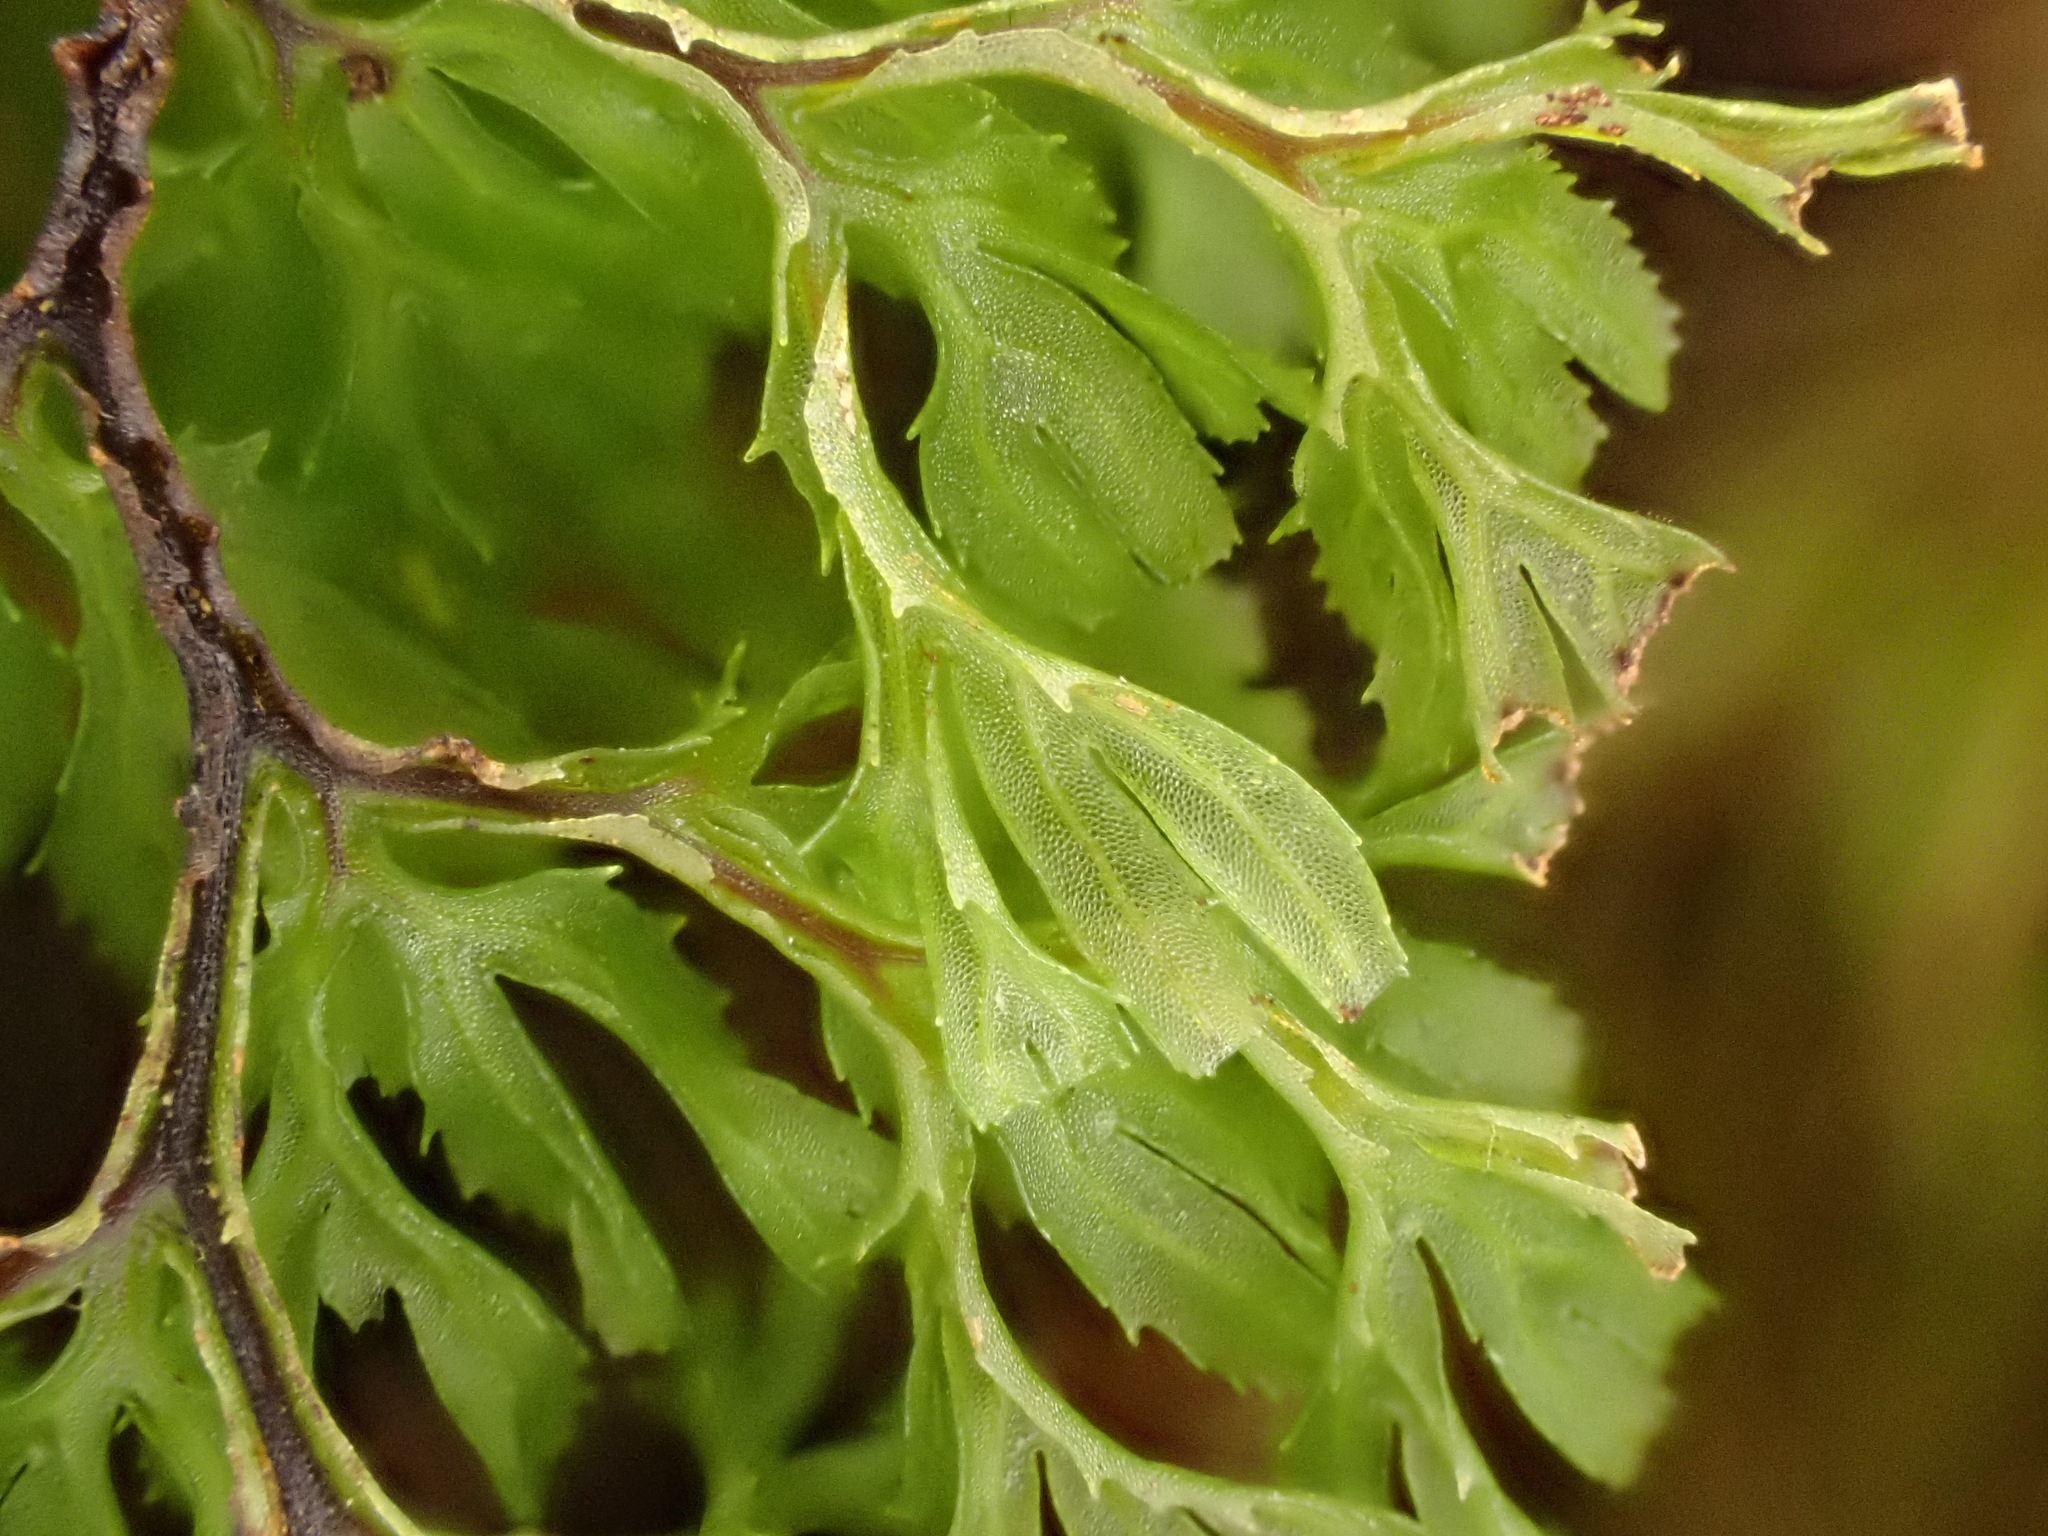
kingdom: Plantae
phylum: Tracheophyta
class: Polypodiopsida
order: Hymenophyllales
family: Hymenophyllaceae
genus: Hymenophyllum
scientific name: Hymenophyllum multifidum
